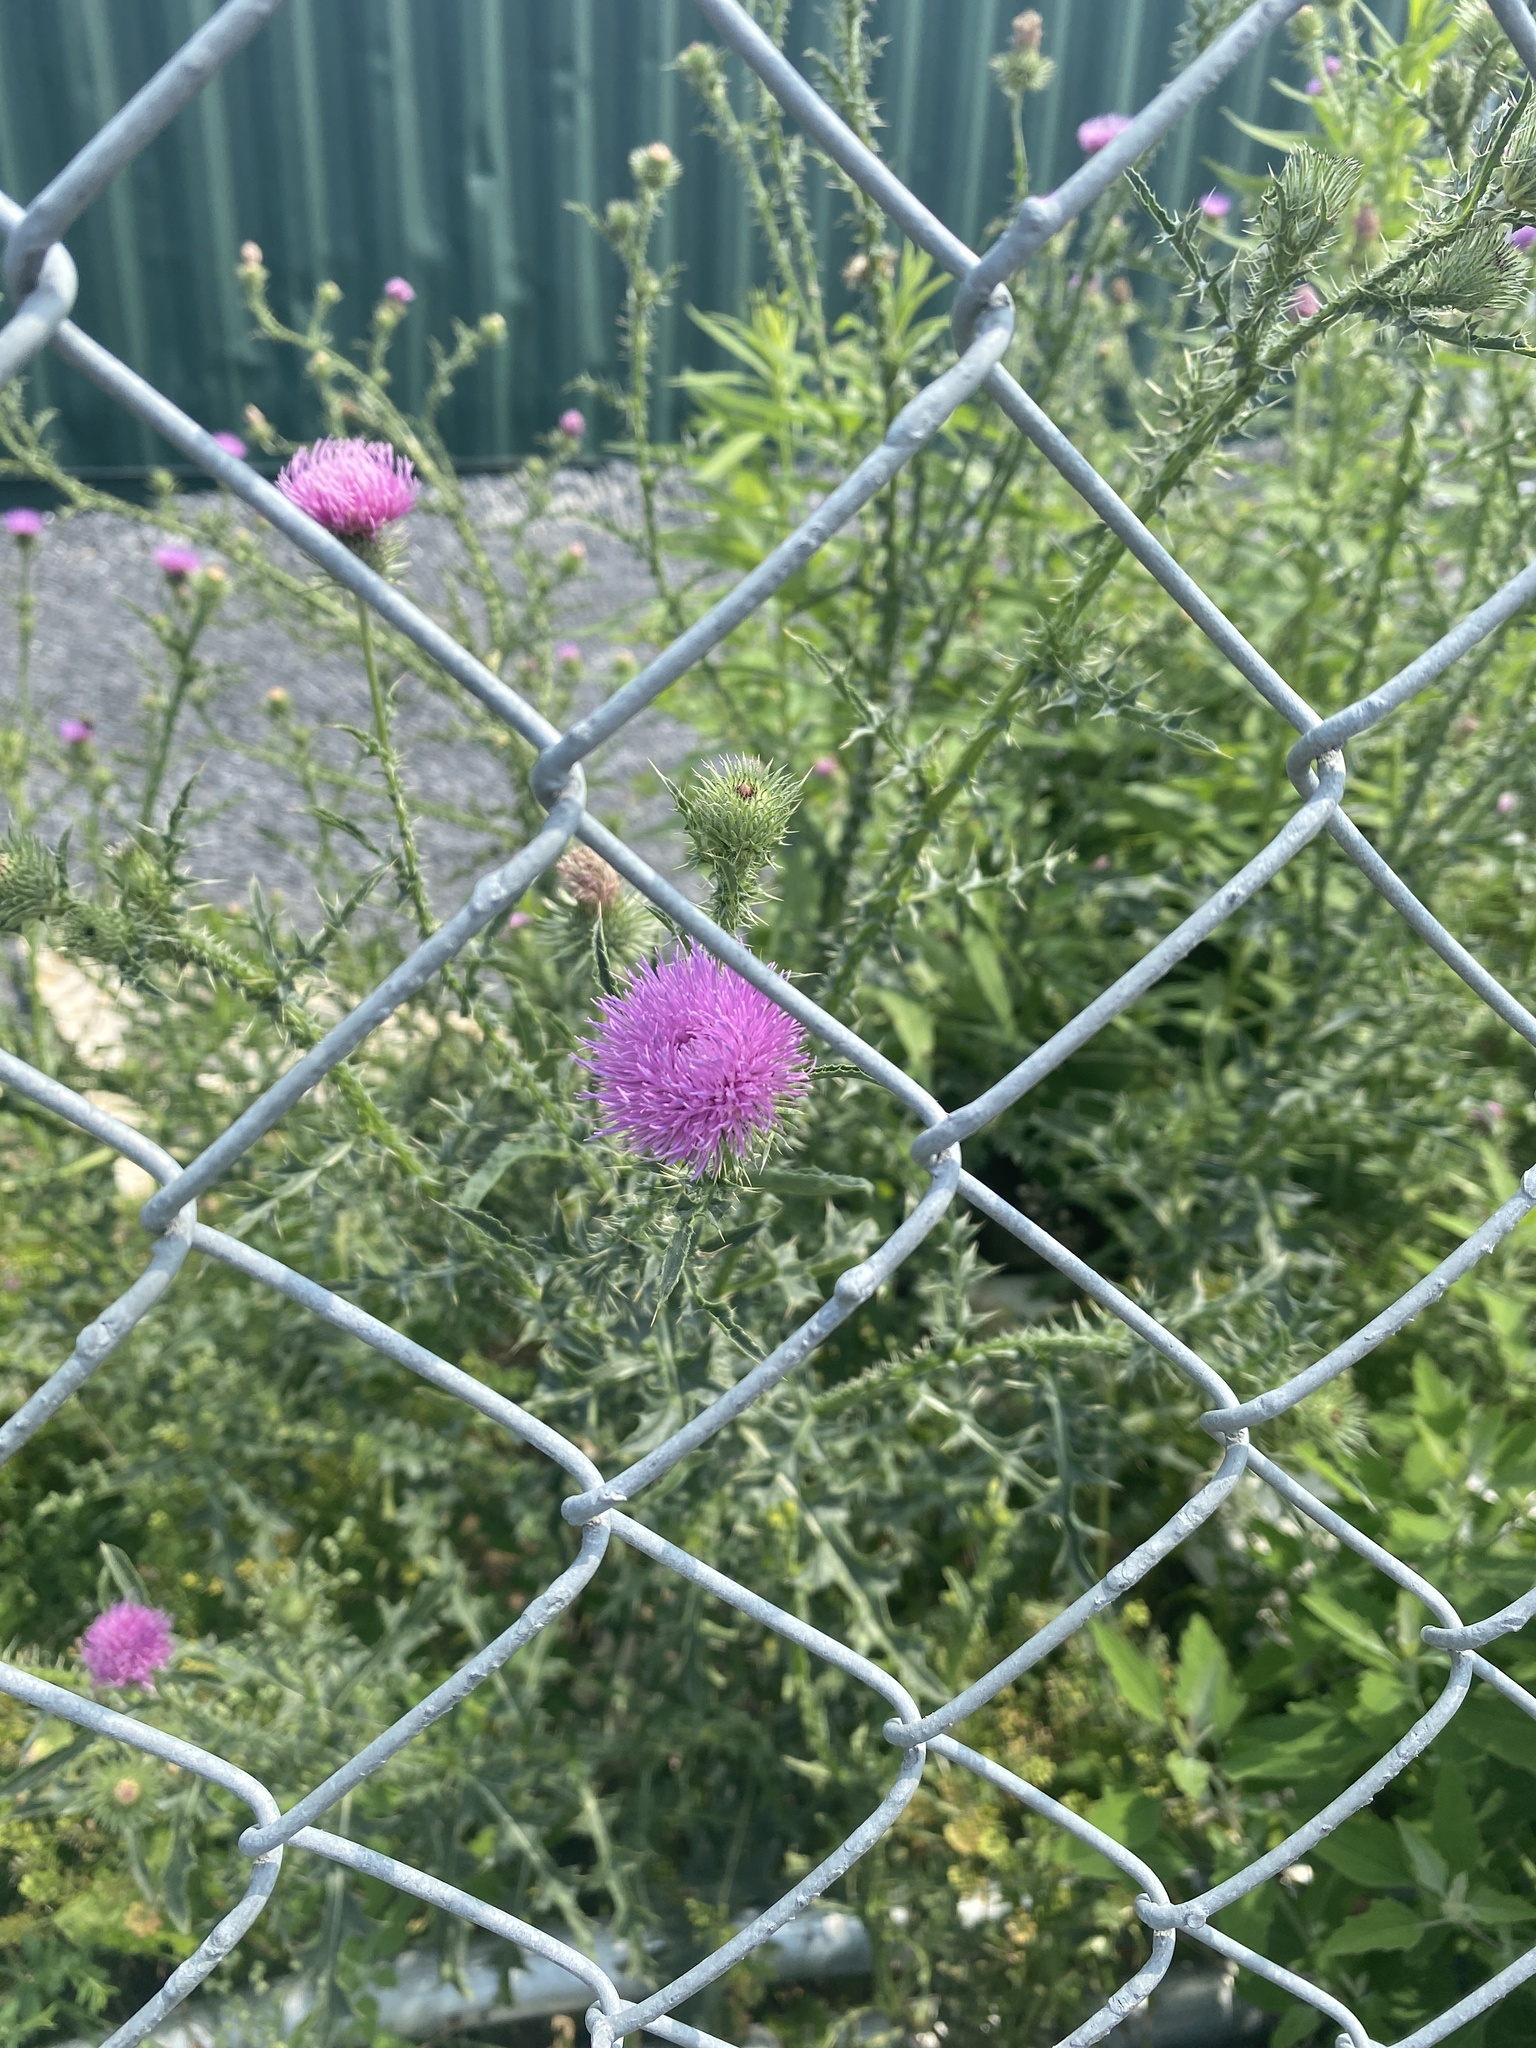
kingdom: Plantae
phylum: Tracheophyta
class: Magnoliopsida
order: Asterales
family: Asteraceae
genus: Carduus
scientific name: Carduus acanthoides
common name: Plumeless thistle
